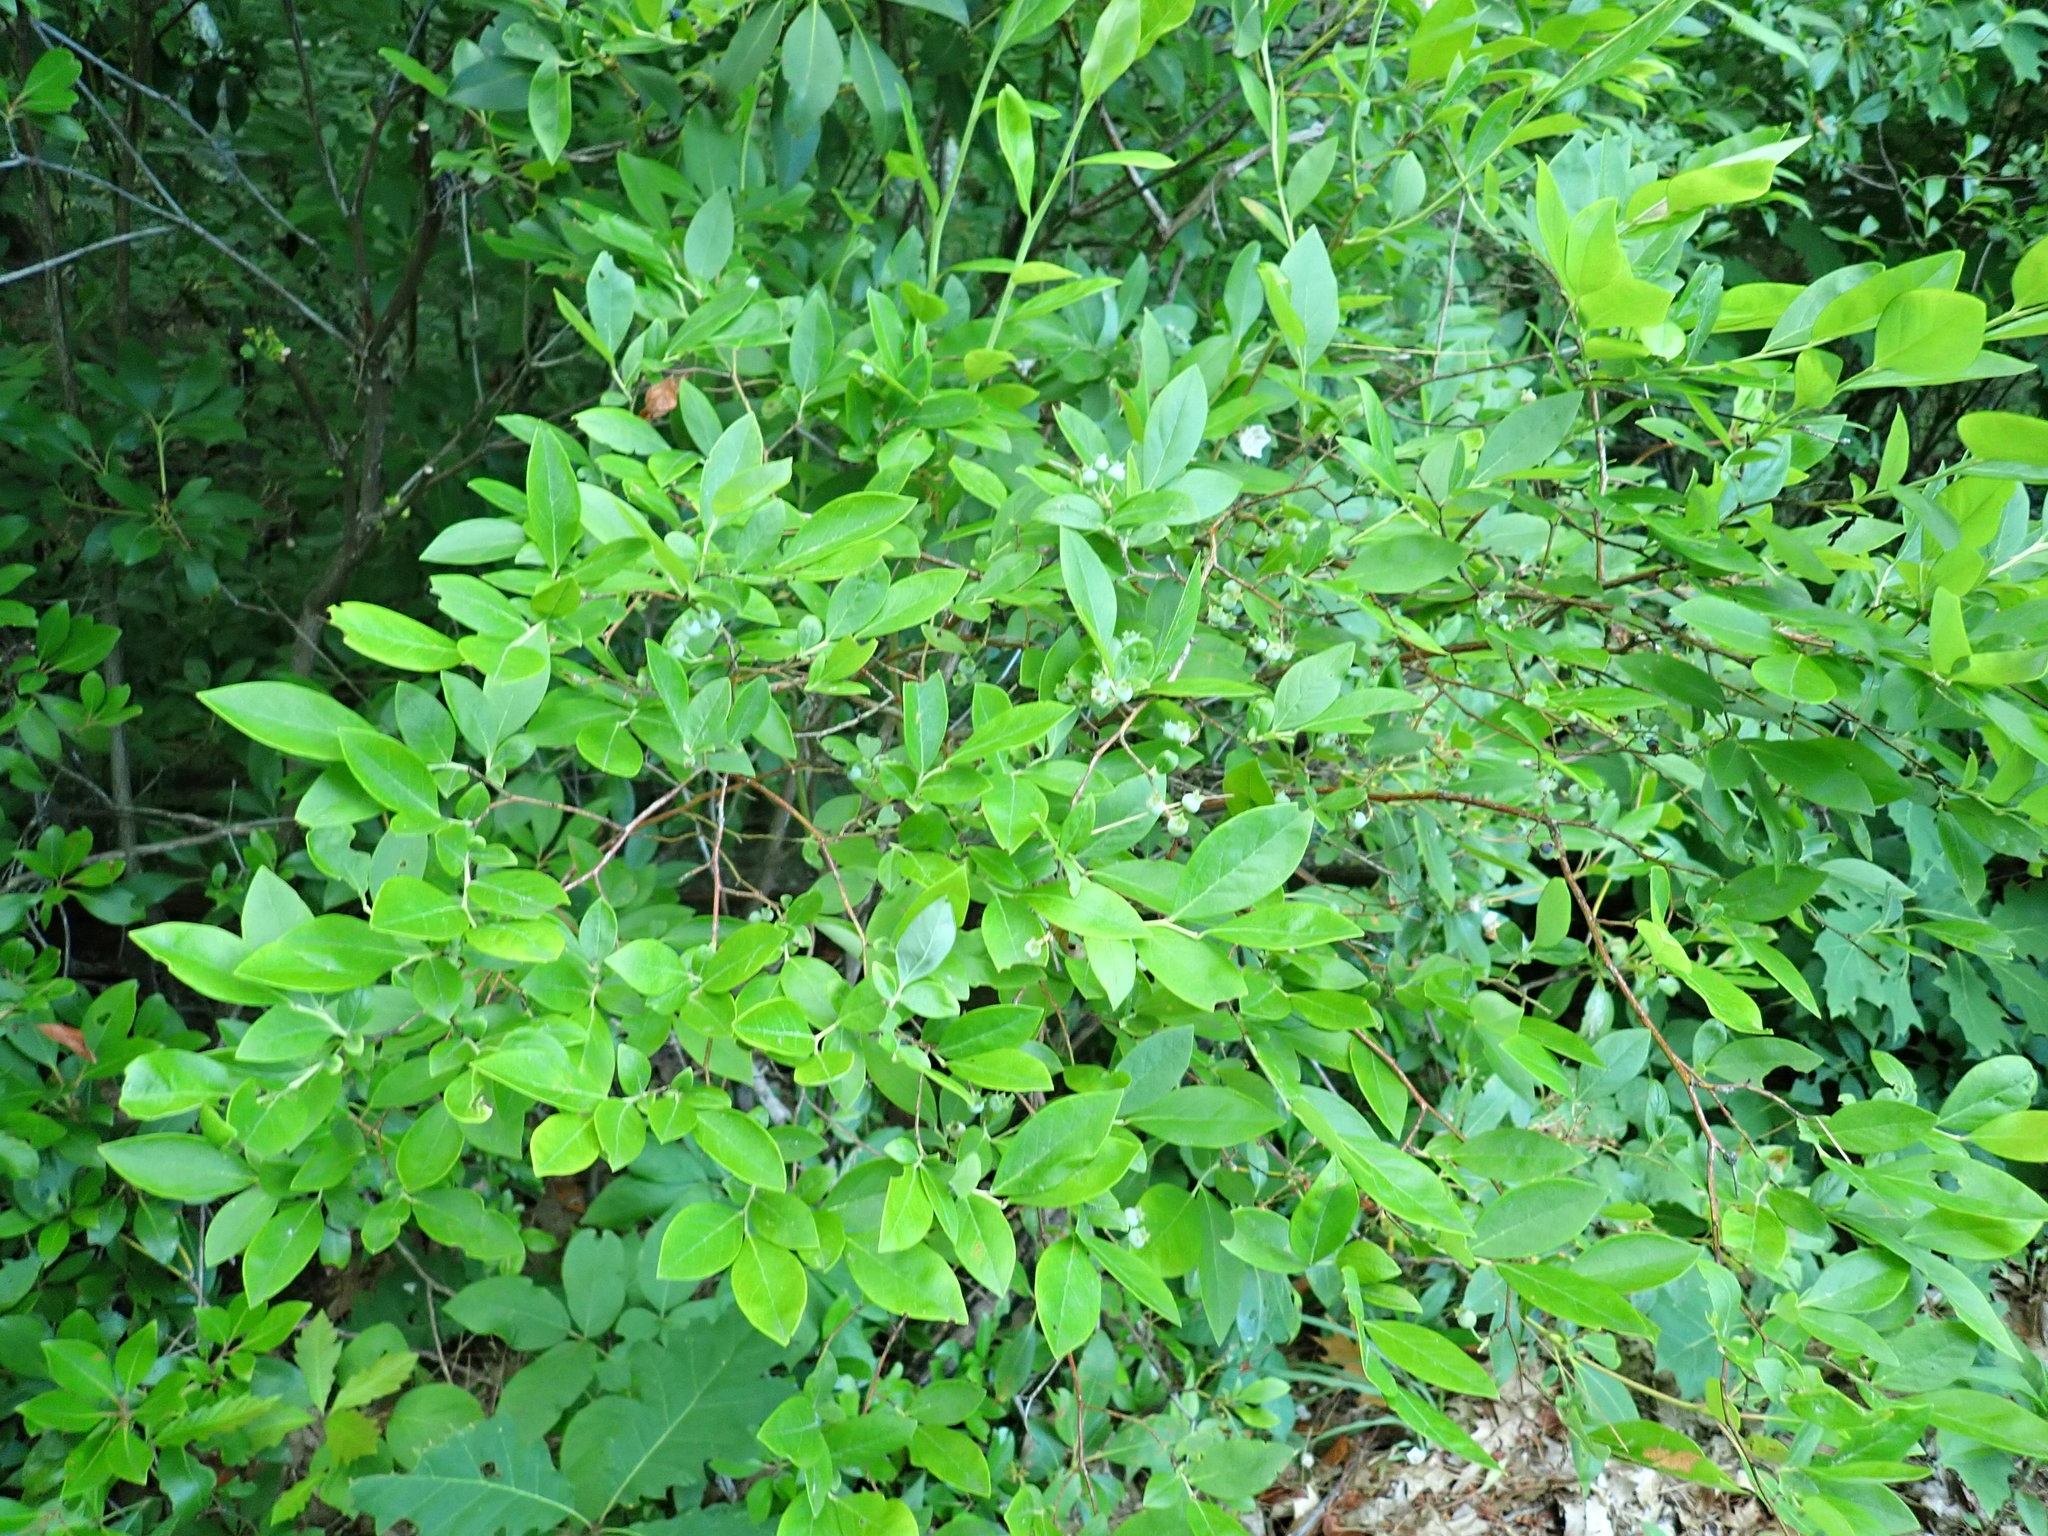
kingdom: Plantae
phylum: Tracheophyta
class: Magnoliopsida
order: Ericales
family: Ericaceae
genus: Vaccinium
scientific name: Vaccinium corymbosum
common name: Blueberry
